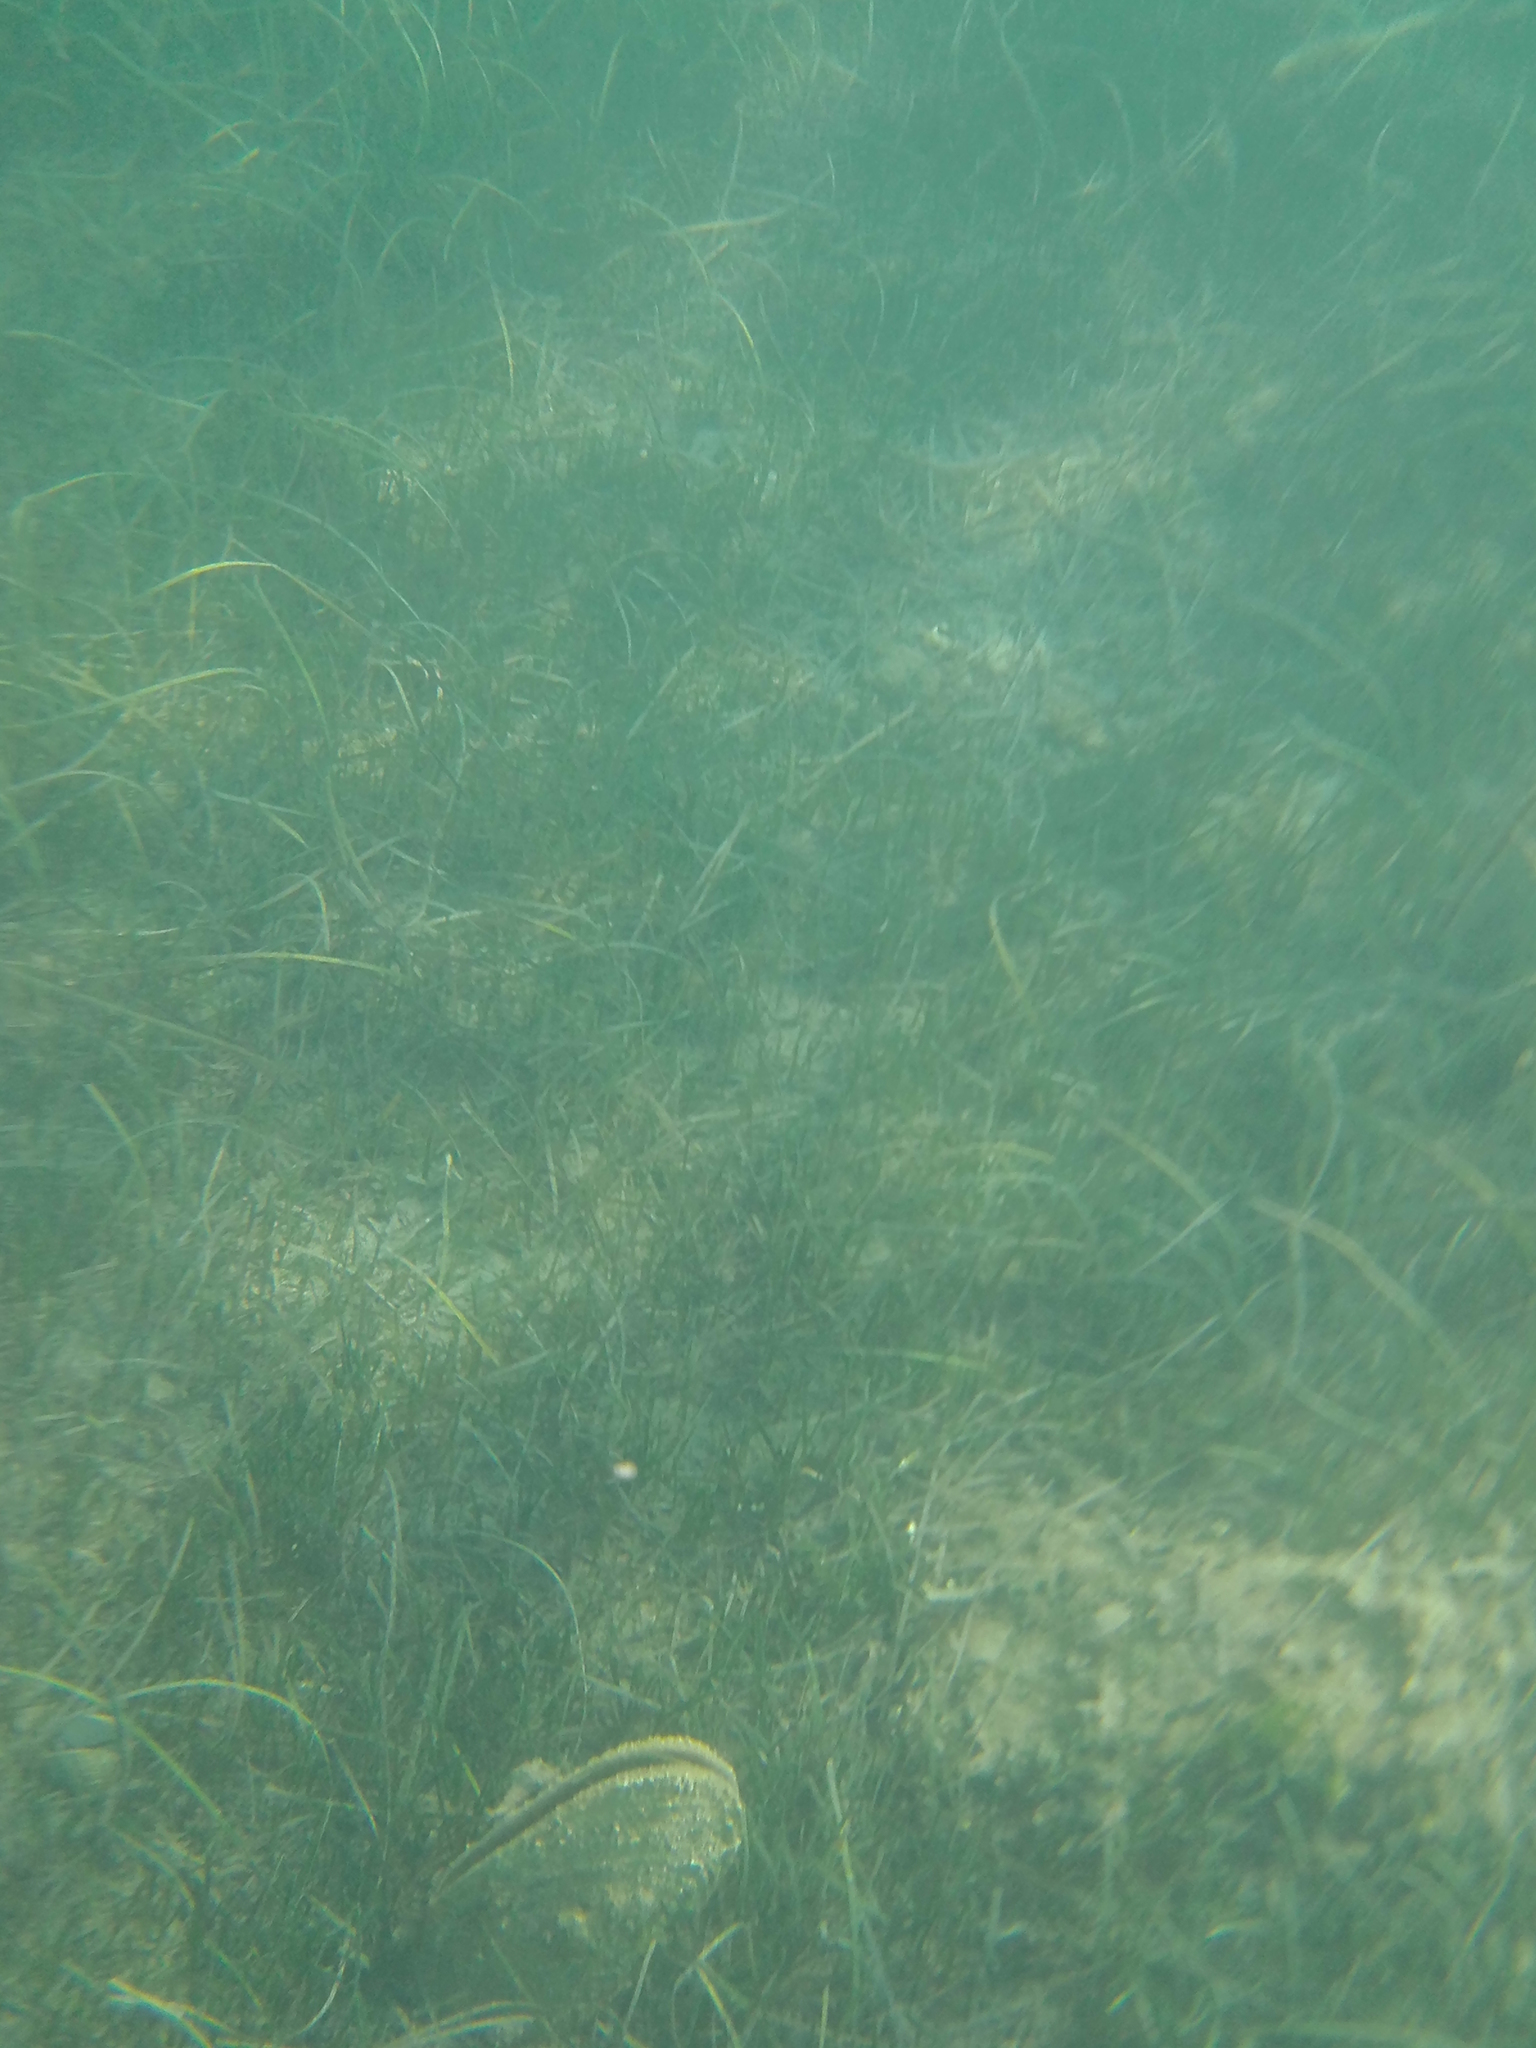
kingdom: Animalia
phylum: Mollusca
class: Bivalvia
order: Ostreida
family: Pinnidae
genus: Pinna
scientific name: Pinna nobilis
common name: Fan mussel
